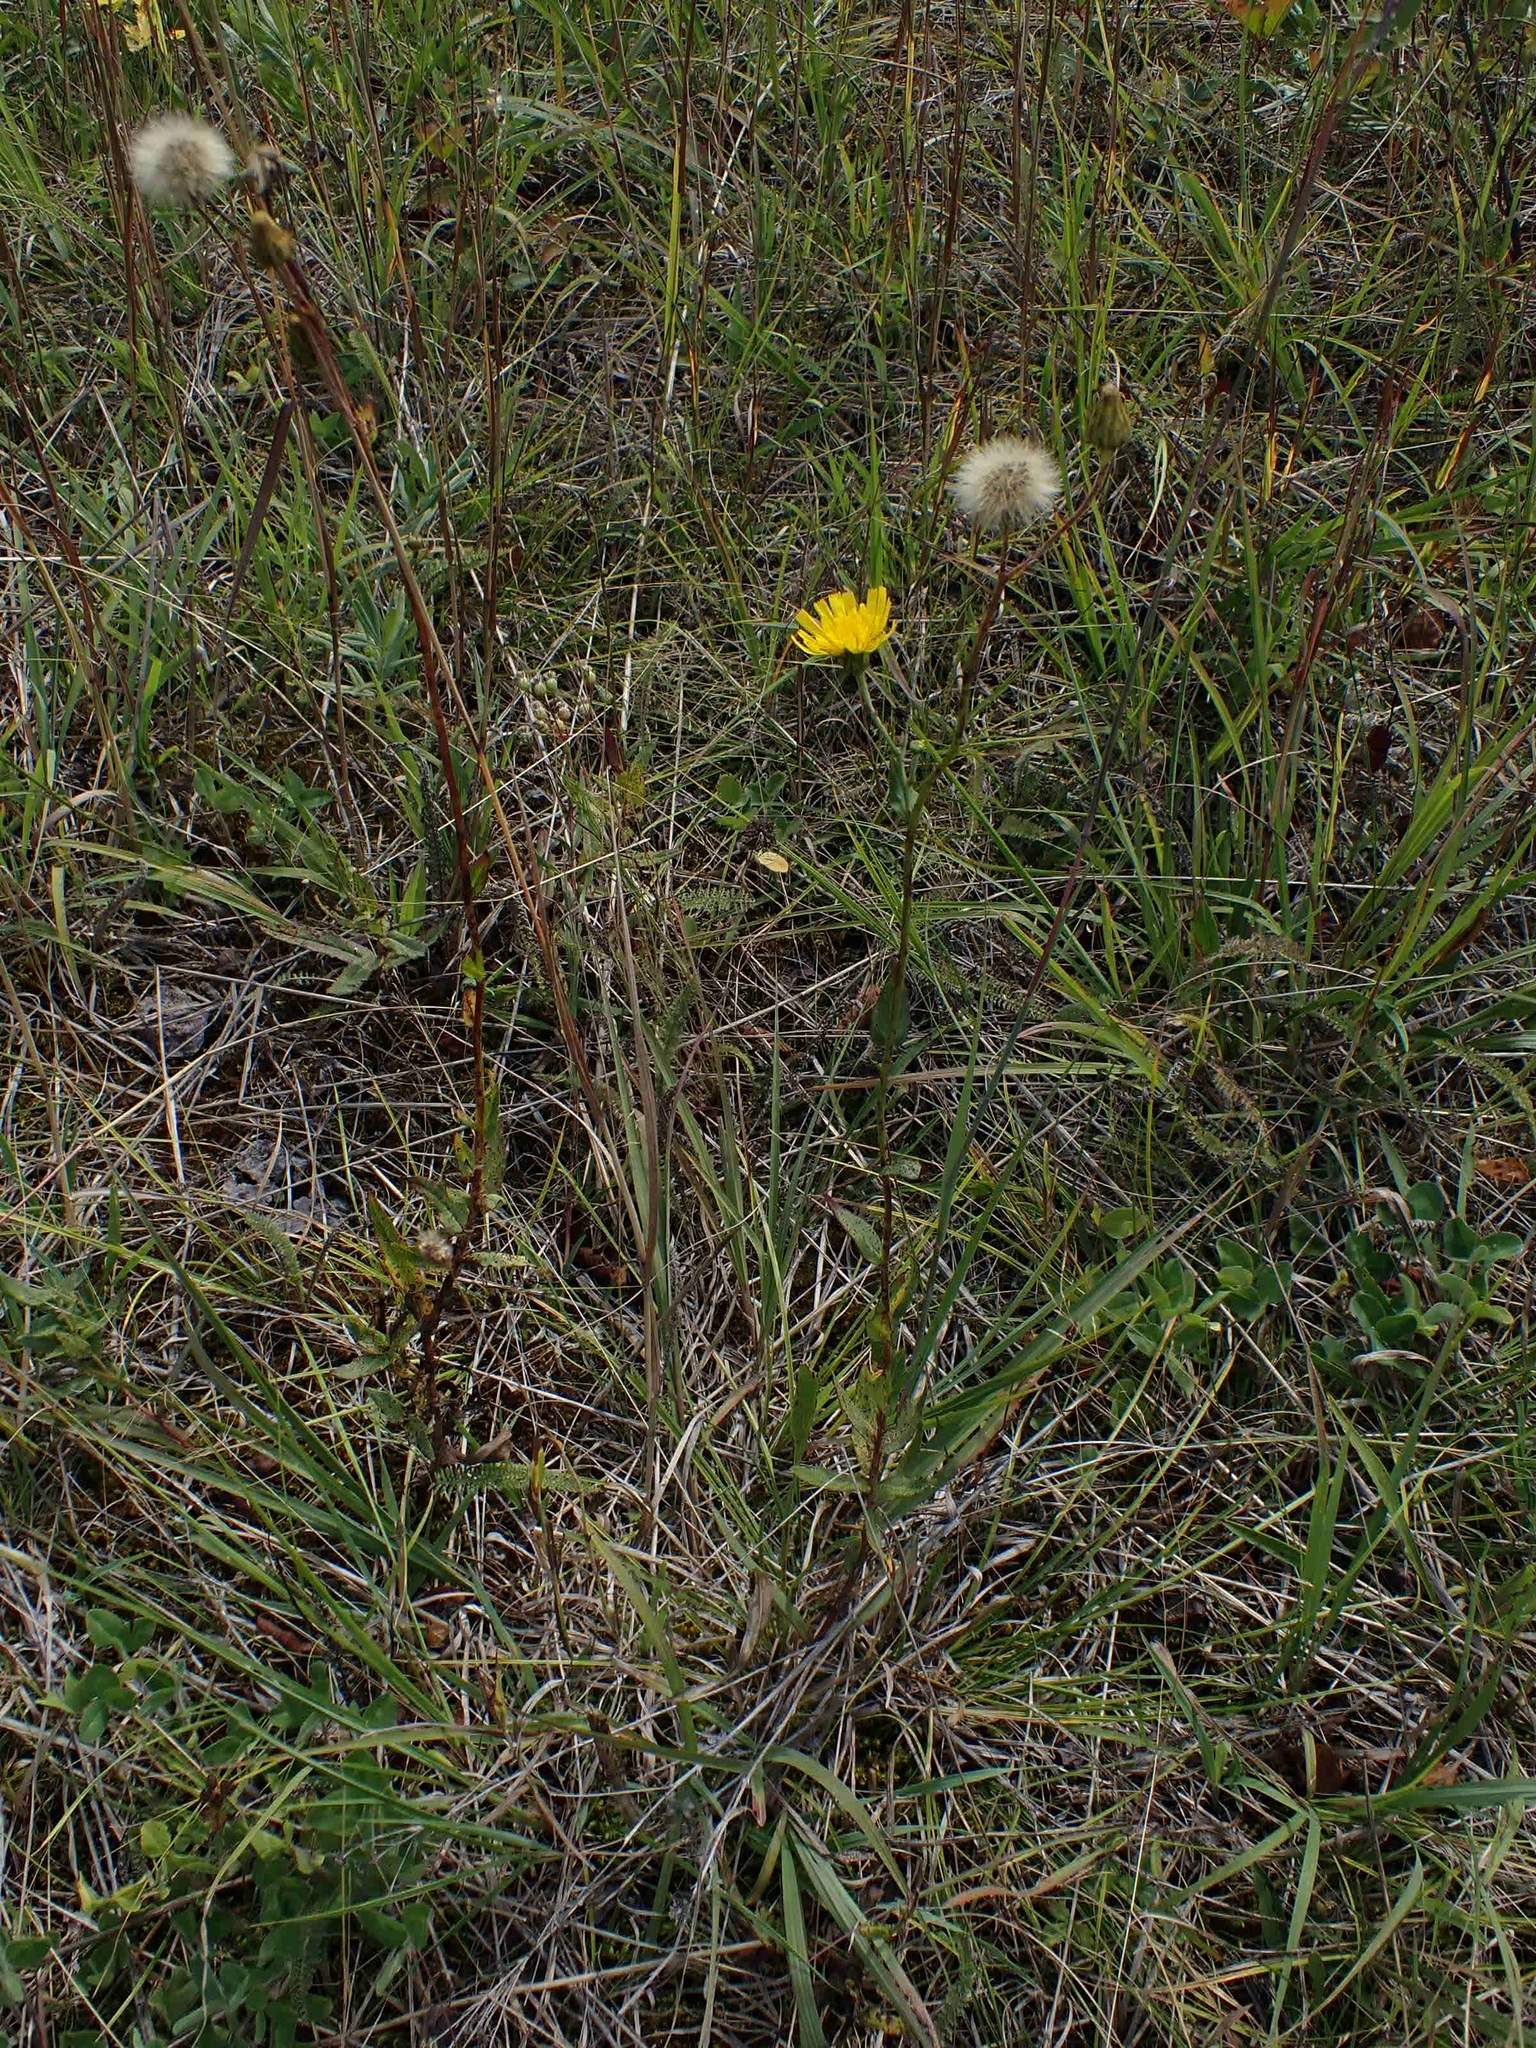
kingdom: Plantae
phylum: Tracheophyta
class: Magnoliopsida
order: Asterales
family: Asteraceae
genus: Hieracium
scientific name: Hieracium umbellatum
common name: Northern hawkweed
